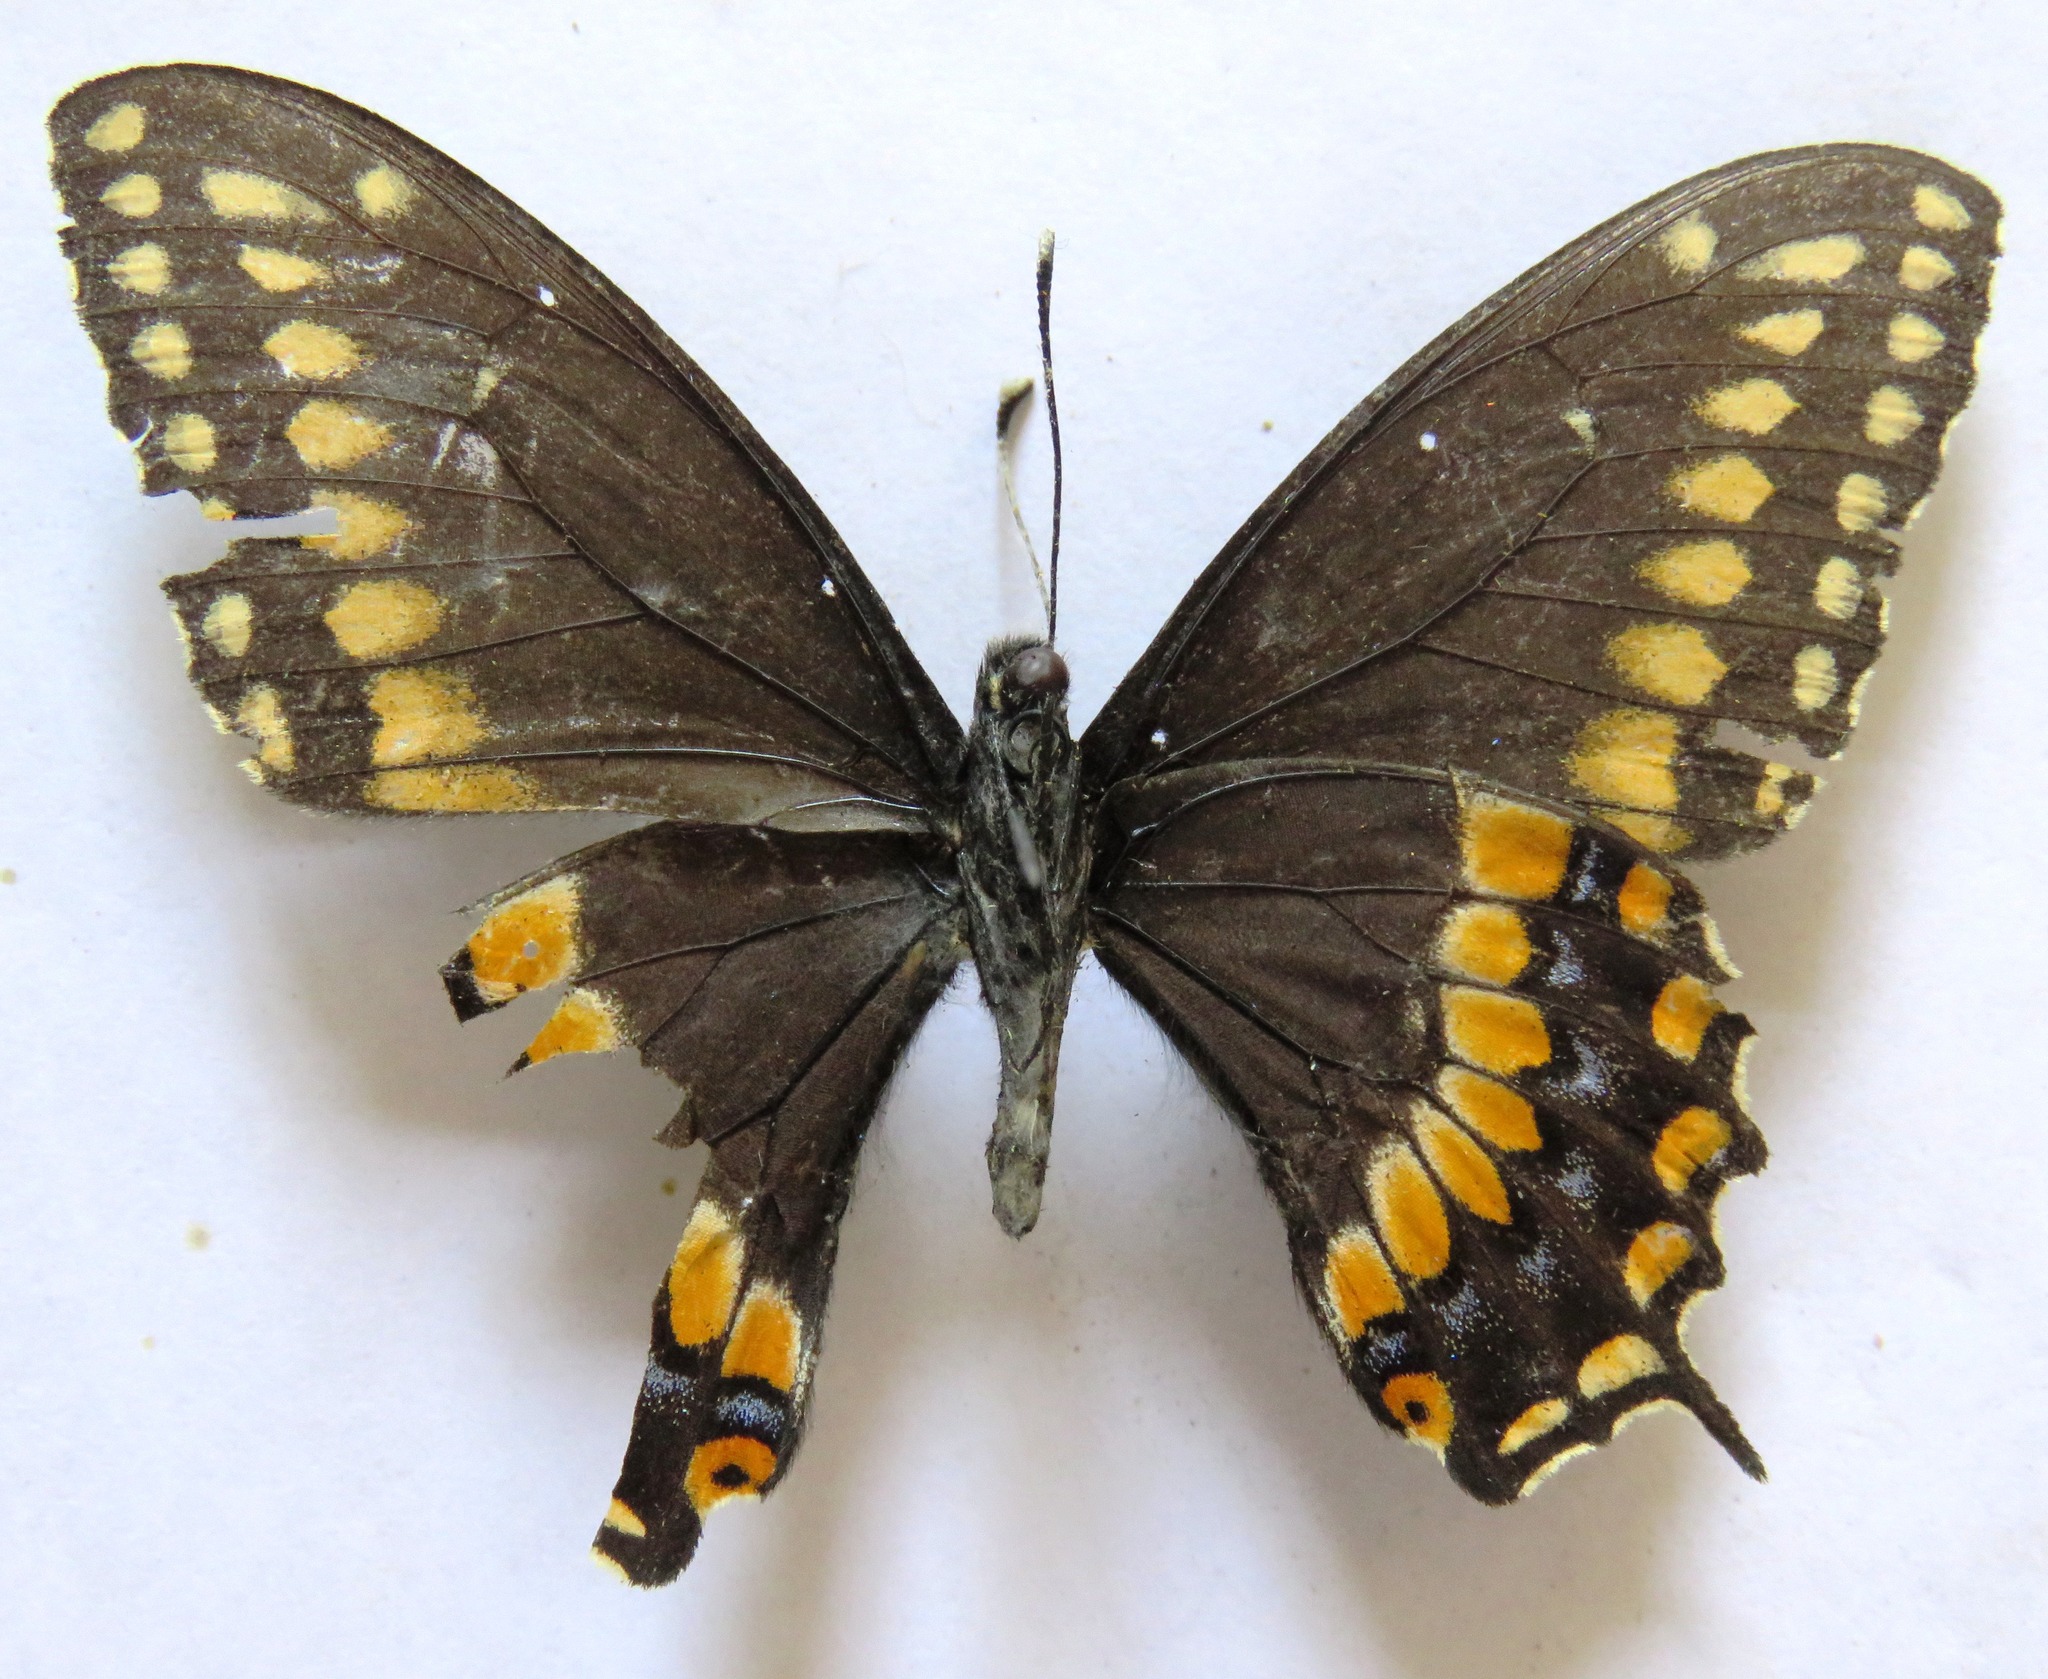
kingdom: Animalia
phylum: Arthropoda
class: Insecta
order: Lepidoptera
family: Papilionidae
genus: Papilio
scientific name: Papilio polyxenes
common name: Black swallowtail
